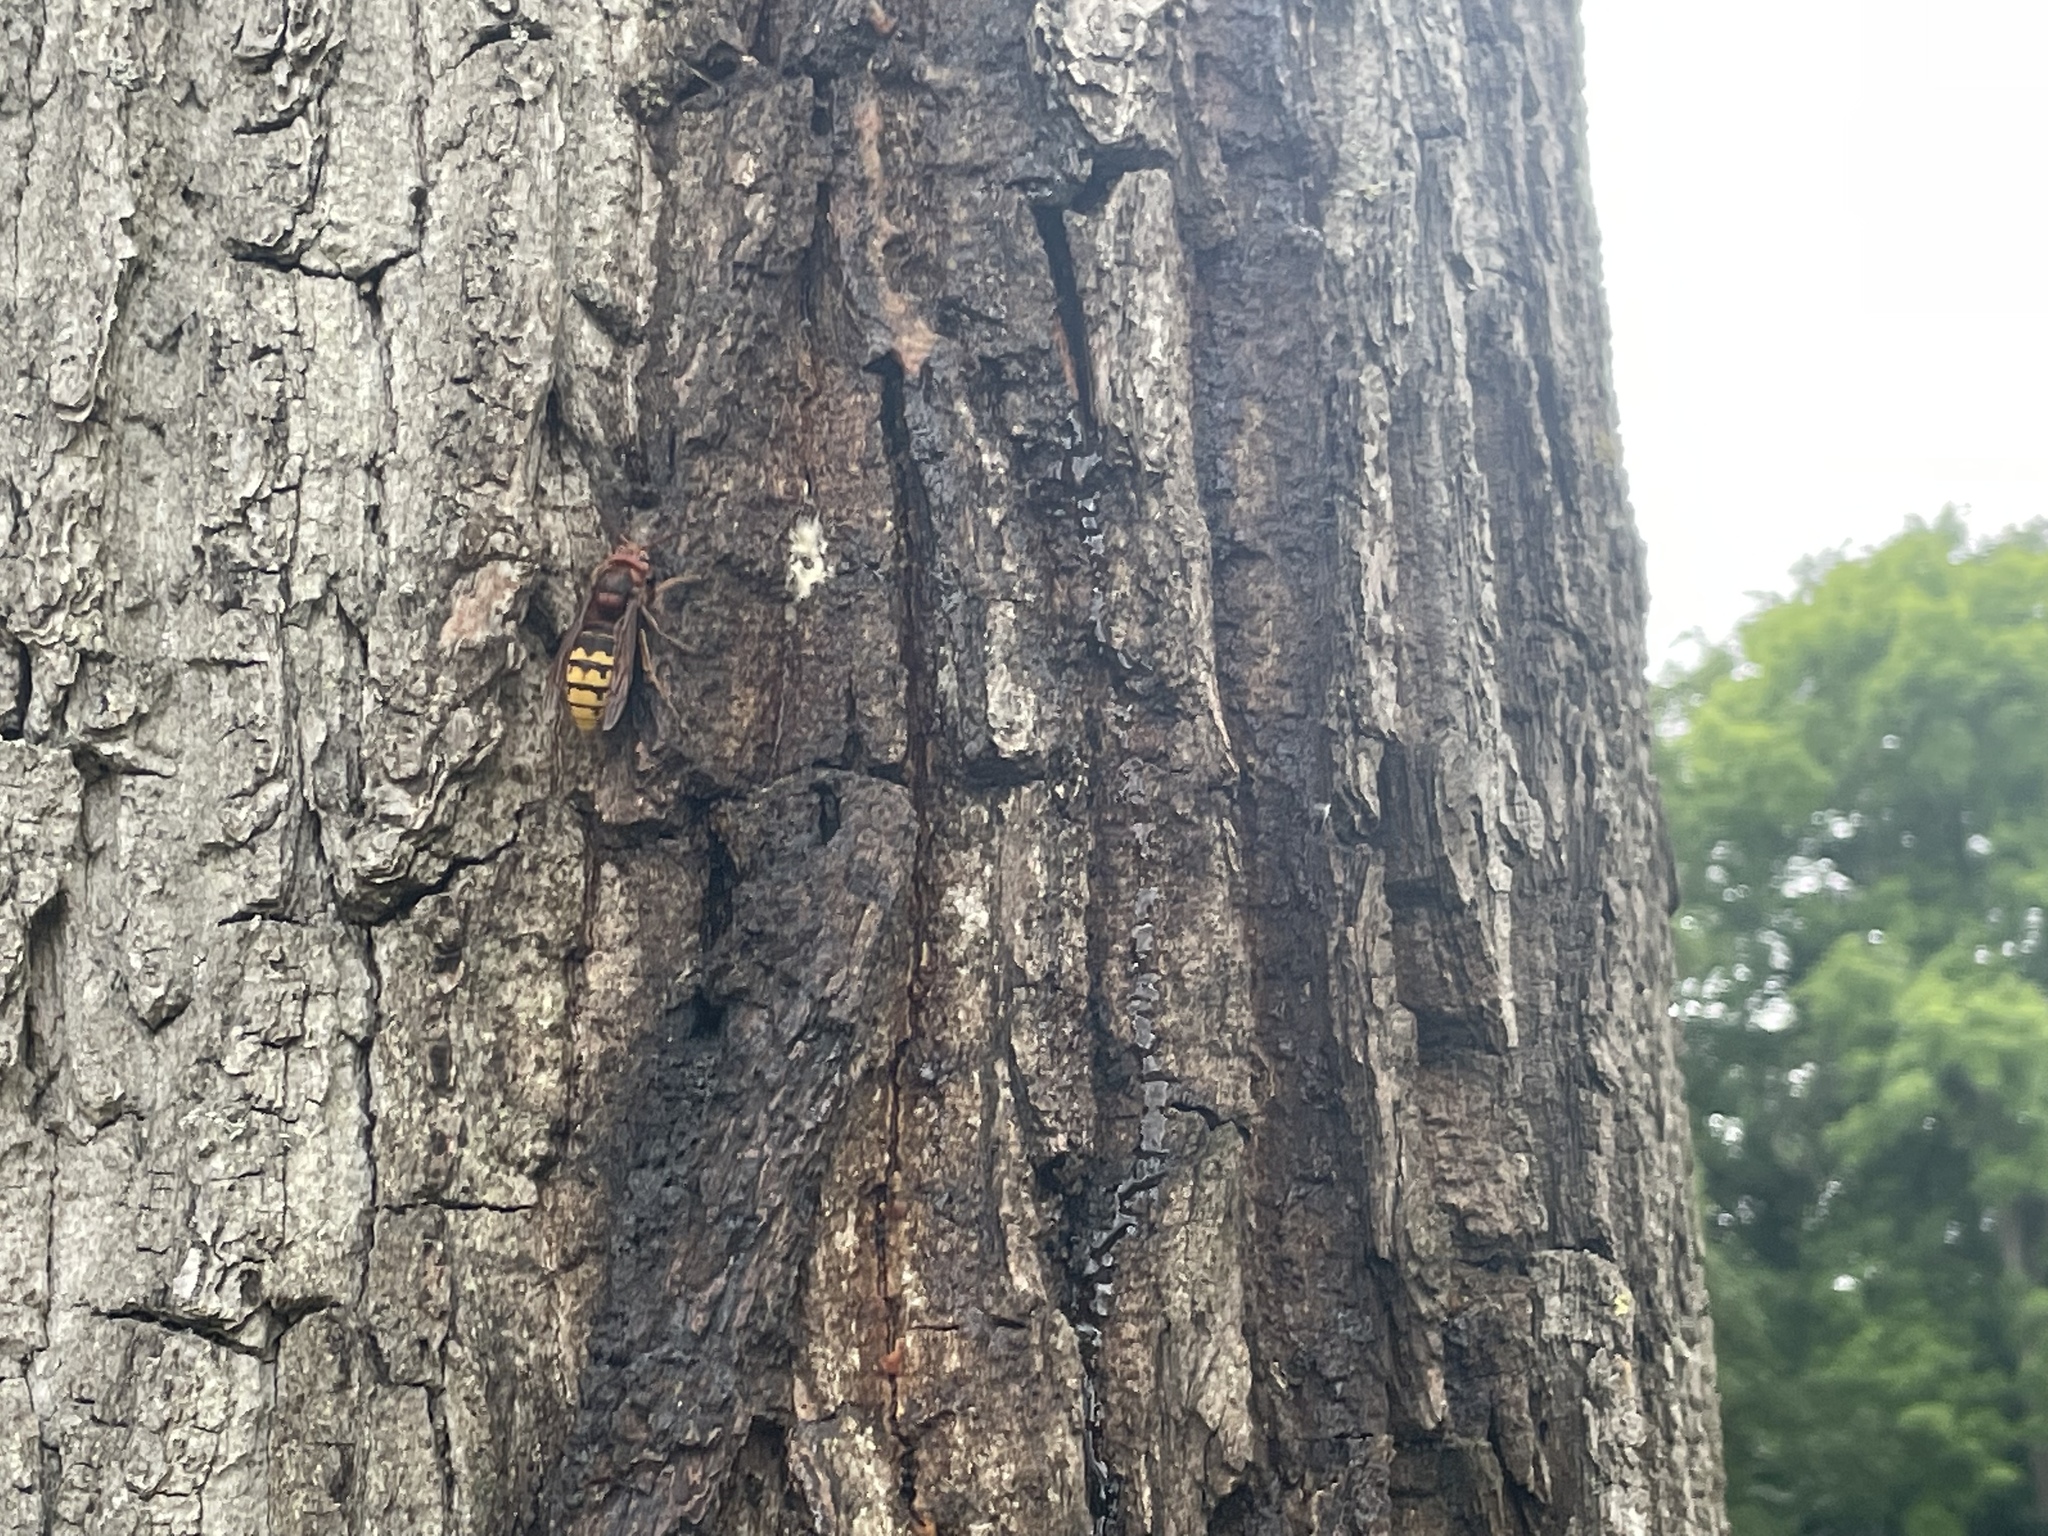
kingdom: Animalia
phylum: Arthropoda
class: Insecta
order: Hymenoptera
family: Vespidae
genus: Vespa
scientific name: Vespa crabro
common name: Hornet
